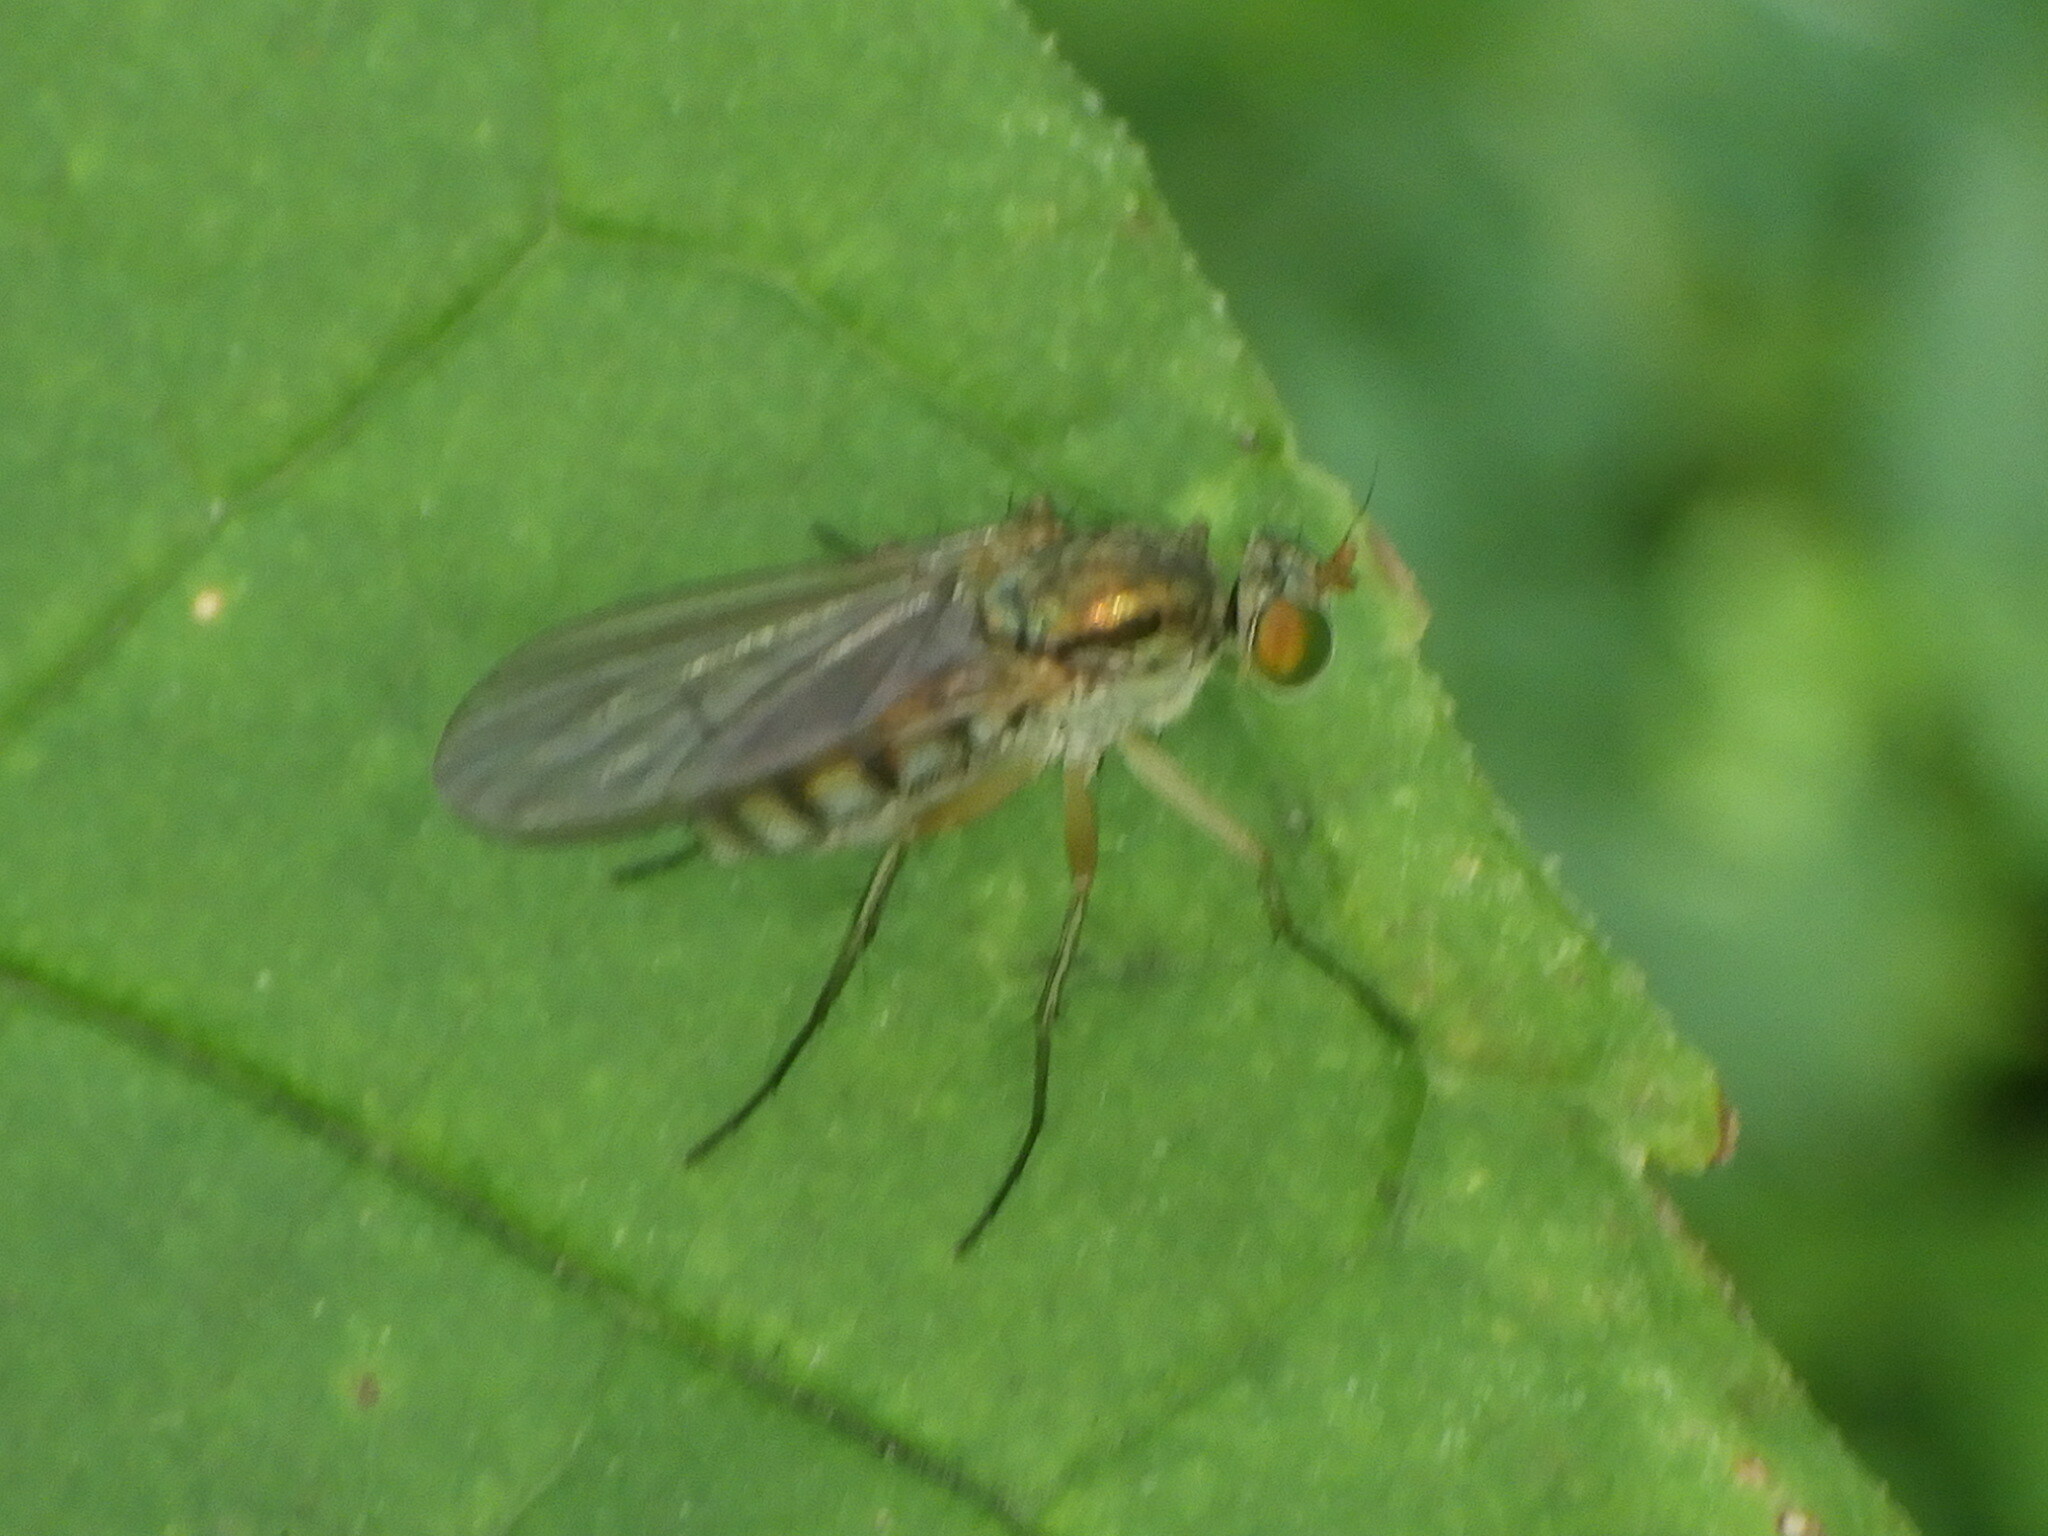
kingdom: Animalia
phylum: Arthropoda
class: Insecta
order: Diptera
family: Dolichopodidae
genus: Dolichopus
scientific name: Dolichopus
